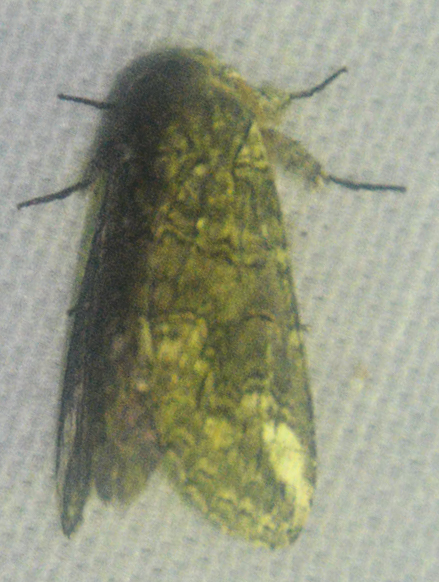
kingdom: Animalia
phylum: Arthropoda
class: Insecta
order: Lepidoptera
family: Notodontidae
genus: Heterocampa
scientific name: Heterocampa obliqua
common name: Oblique heterocampa
